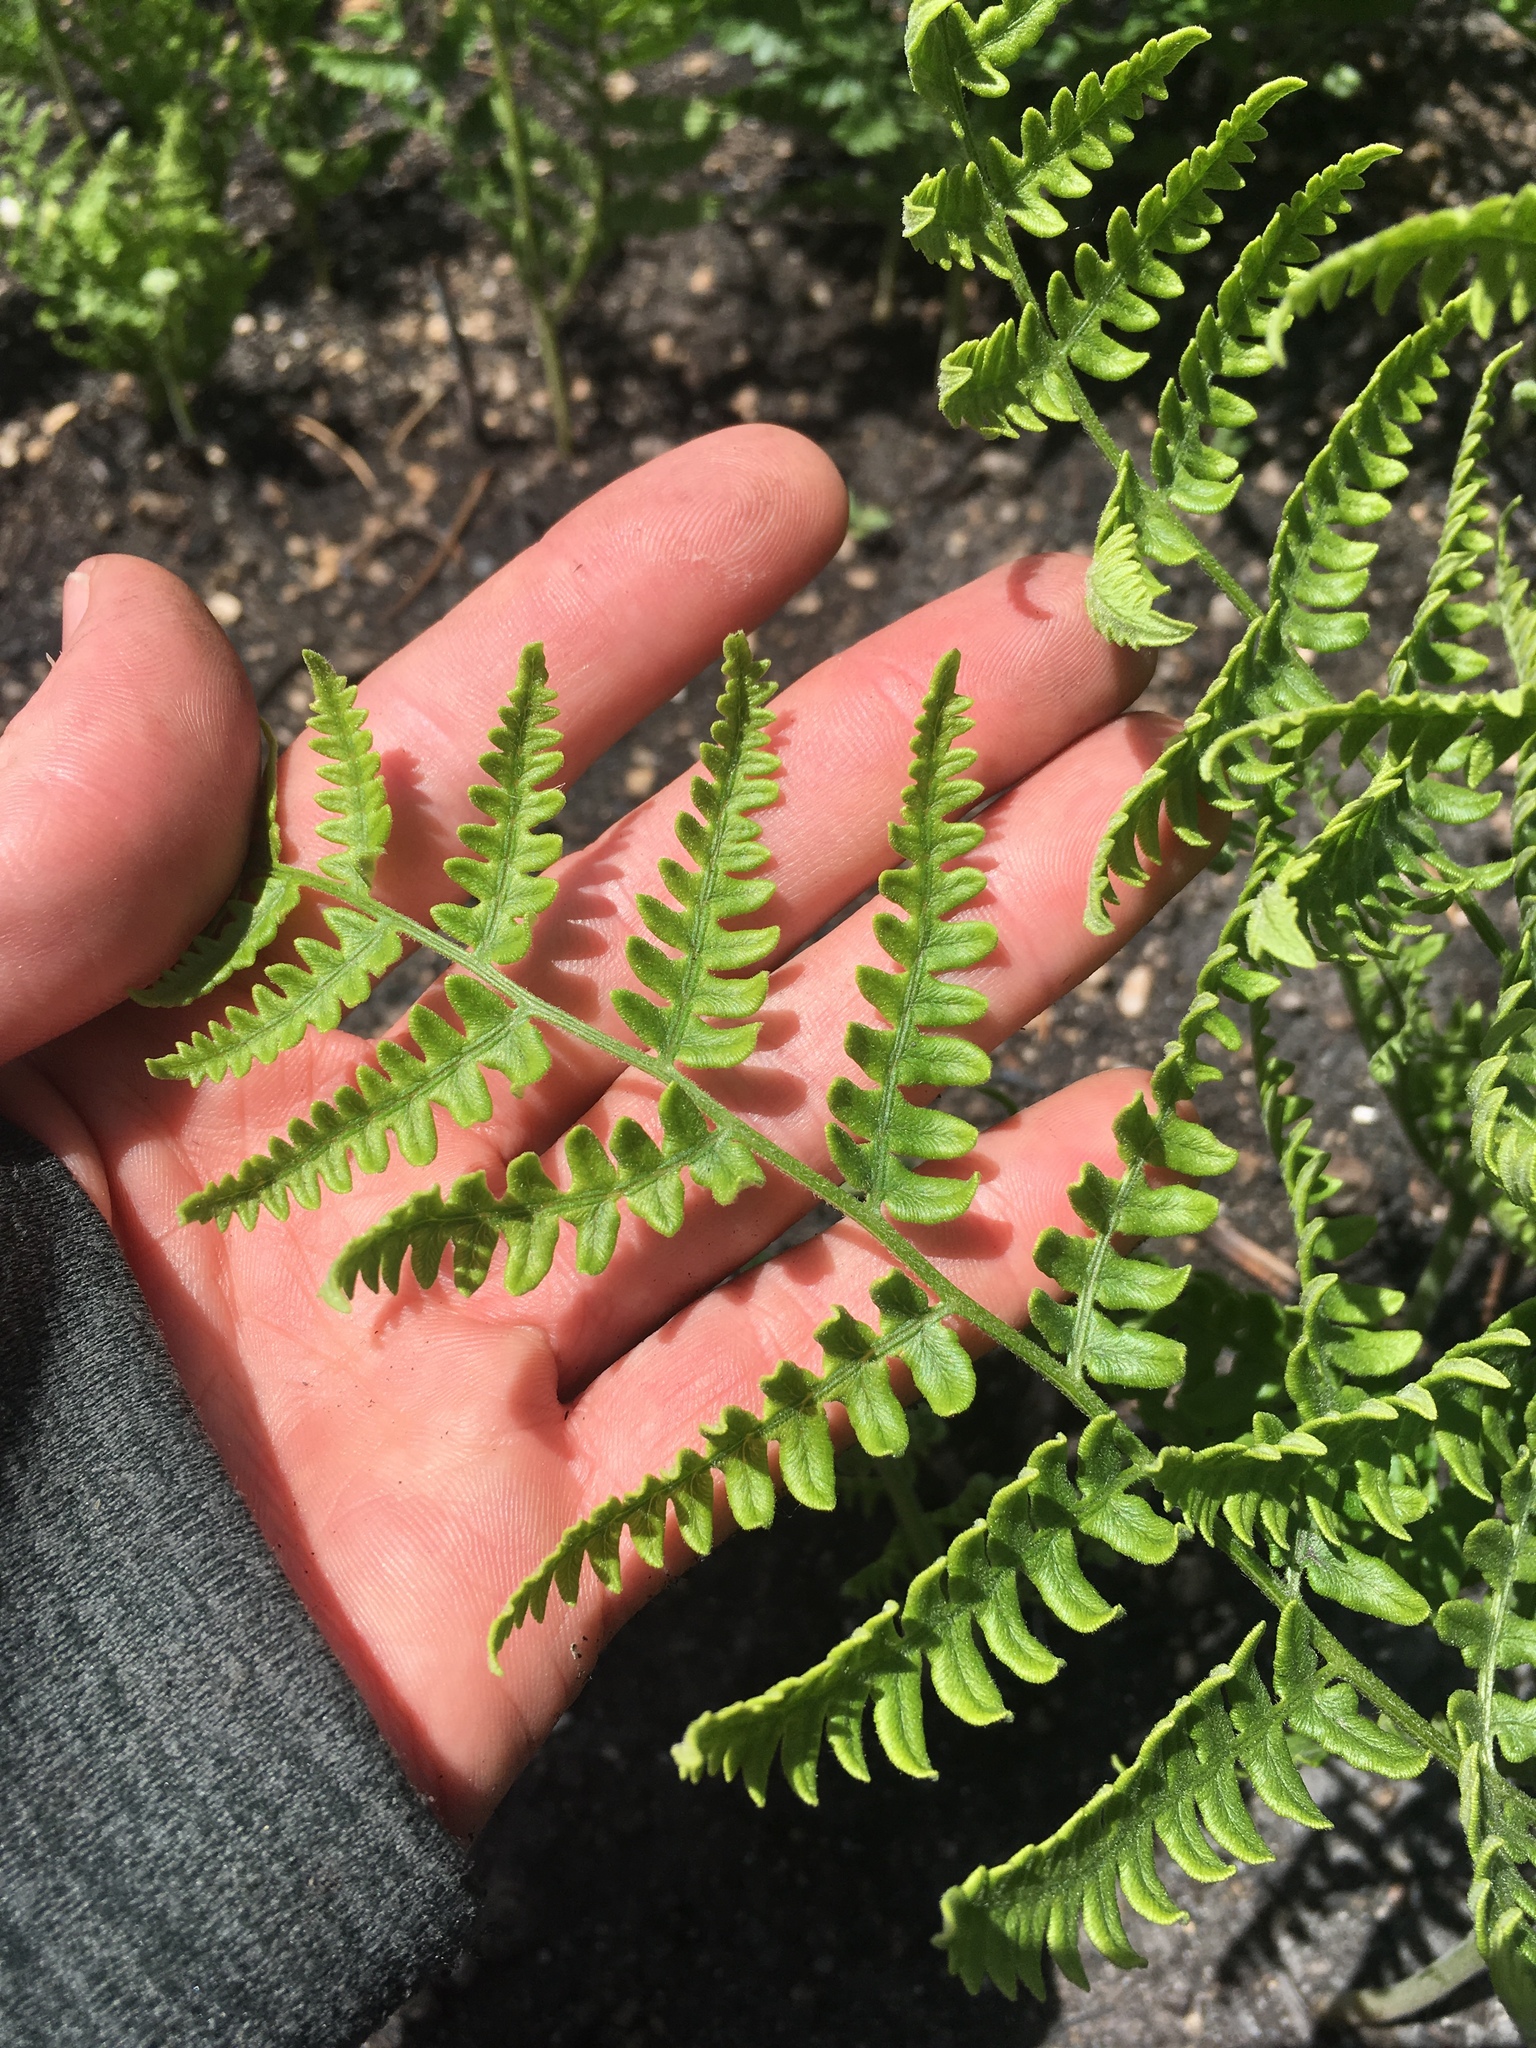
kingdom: Plantae
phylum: Tracheophyta
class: Polypodiopsida
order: Polypodiales
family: Dennstaedtiaceae
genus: Pteridium
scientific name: Pteridium aquilinum
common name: Bracken
